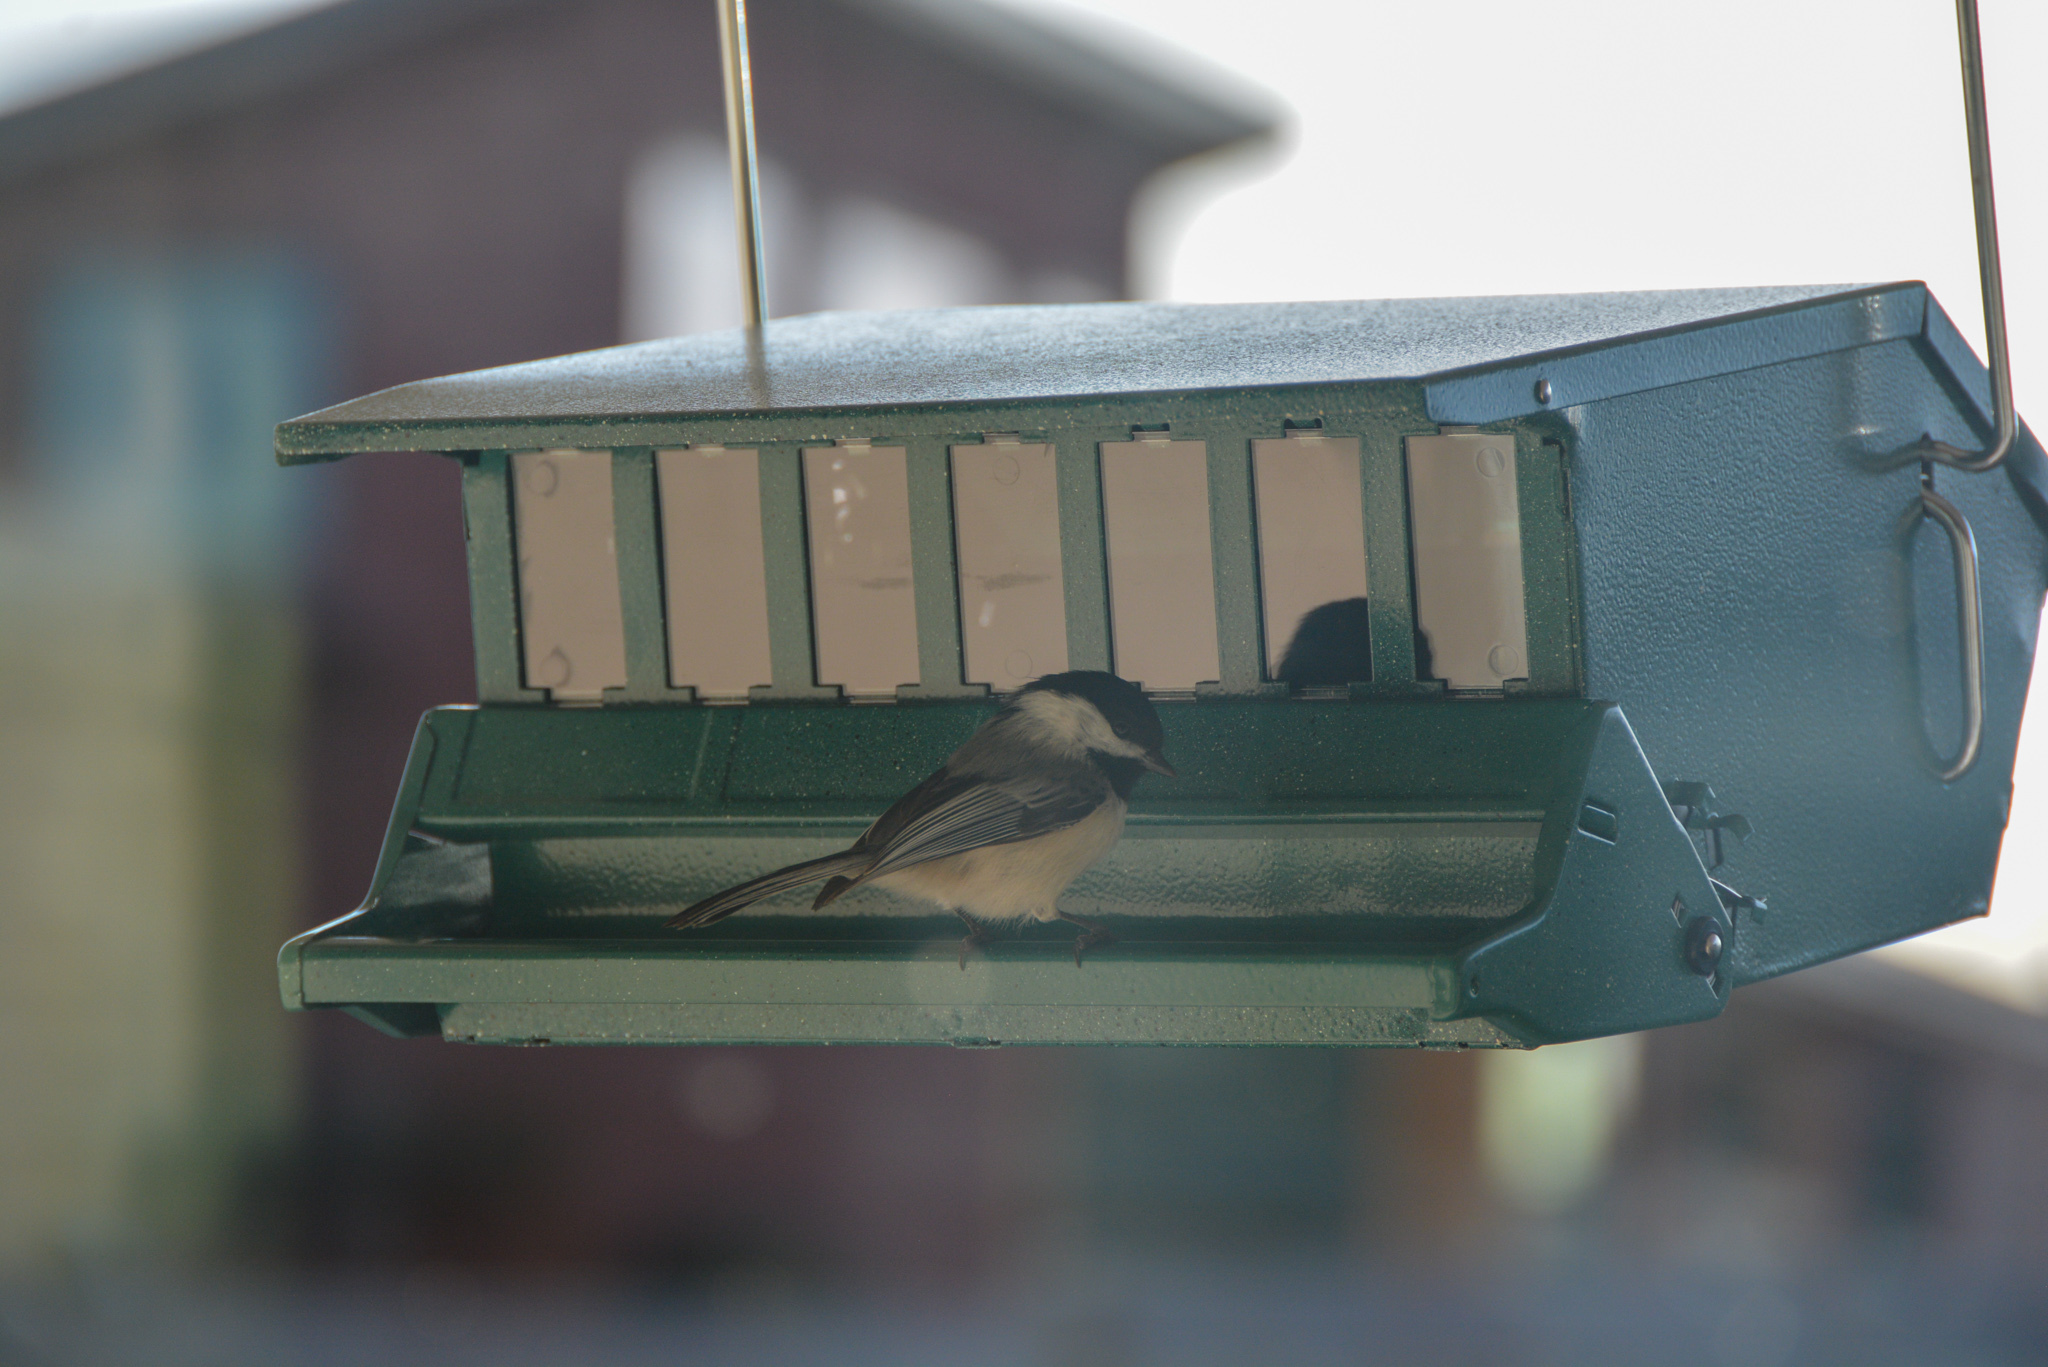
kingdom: Animalia
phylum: Chordata
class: Aves
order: Passeriformes
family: Paridae
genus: Poecile
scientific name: Poecile atricapillus
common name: Black-capped chickadee
